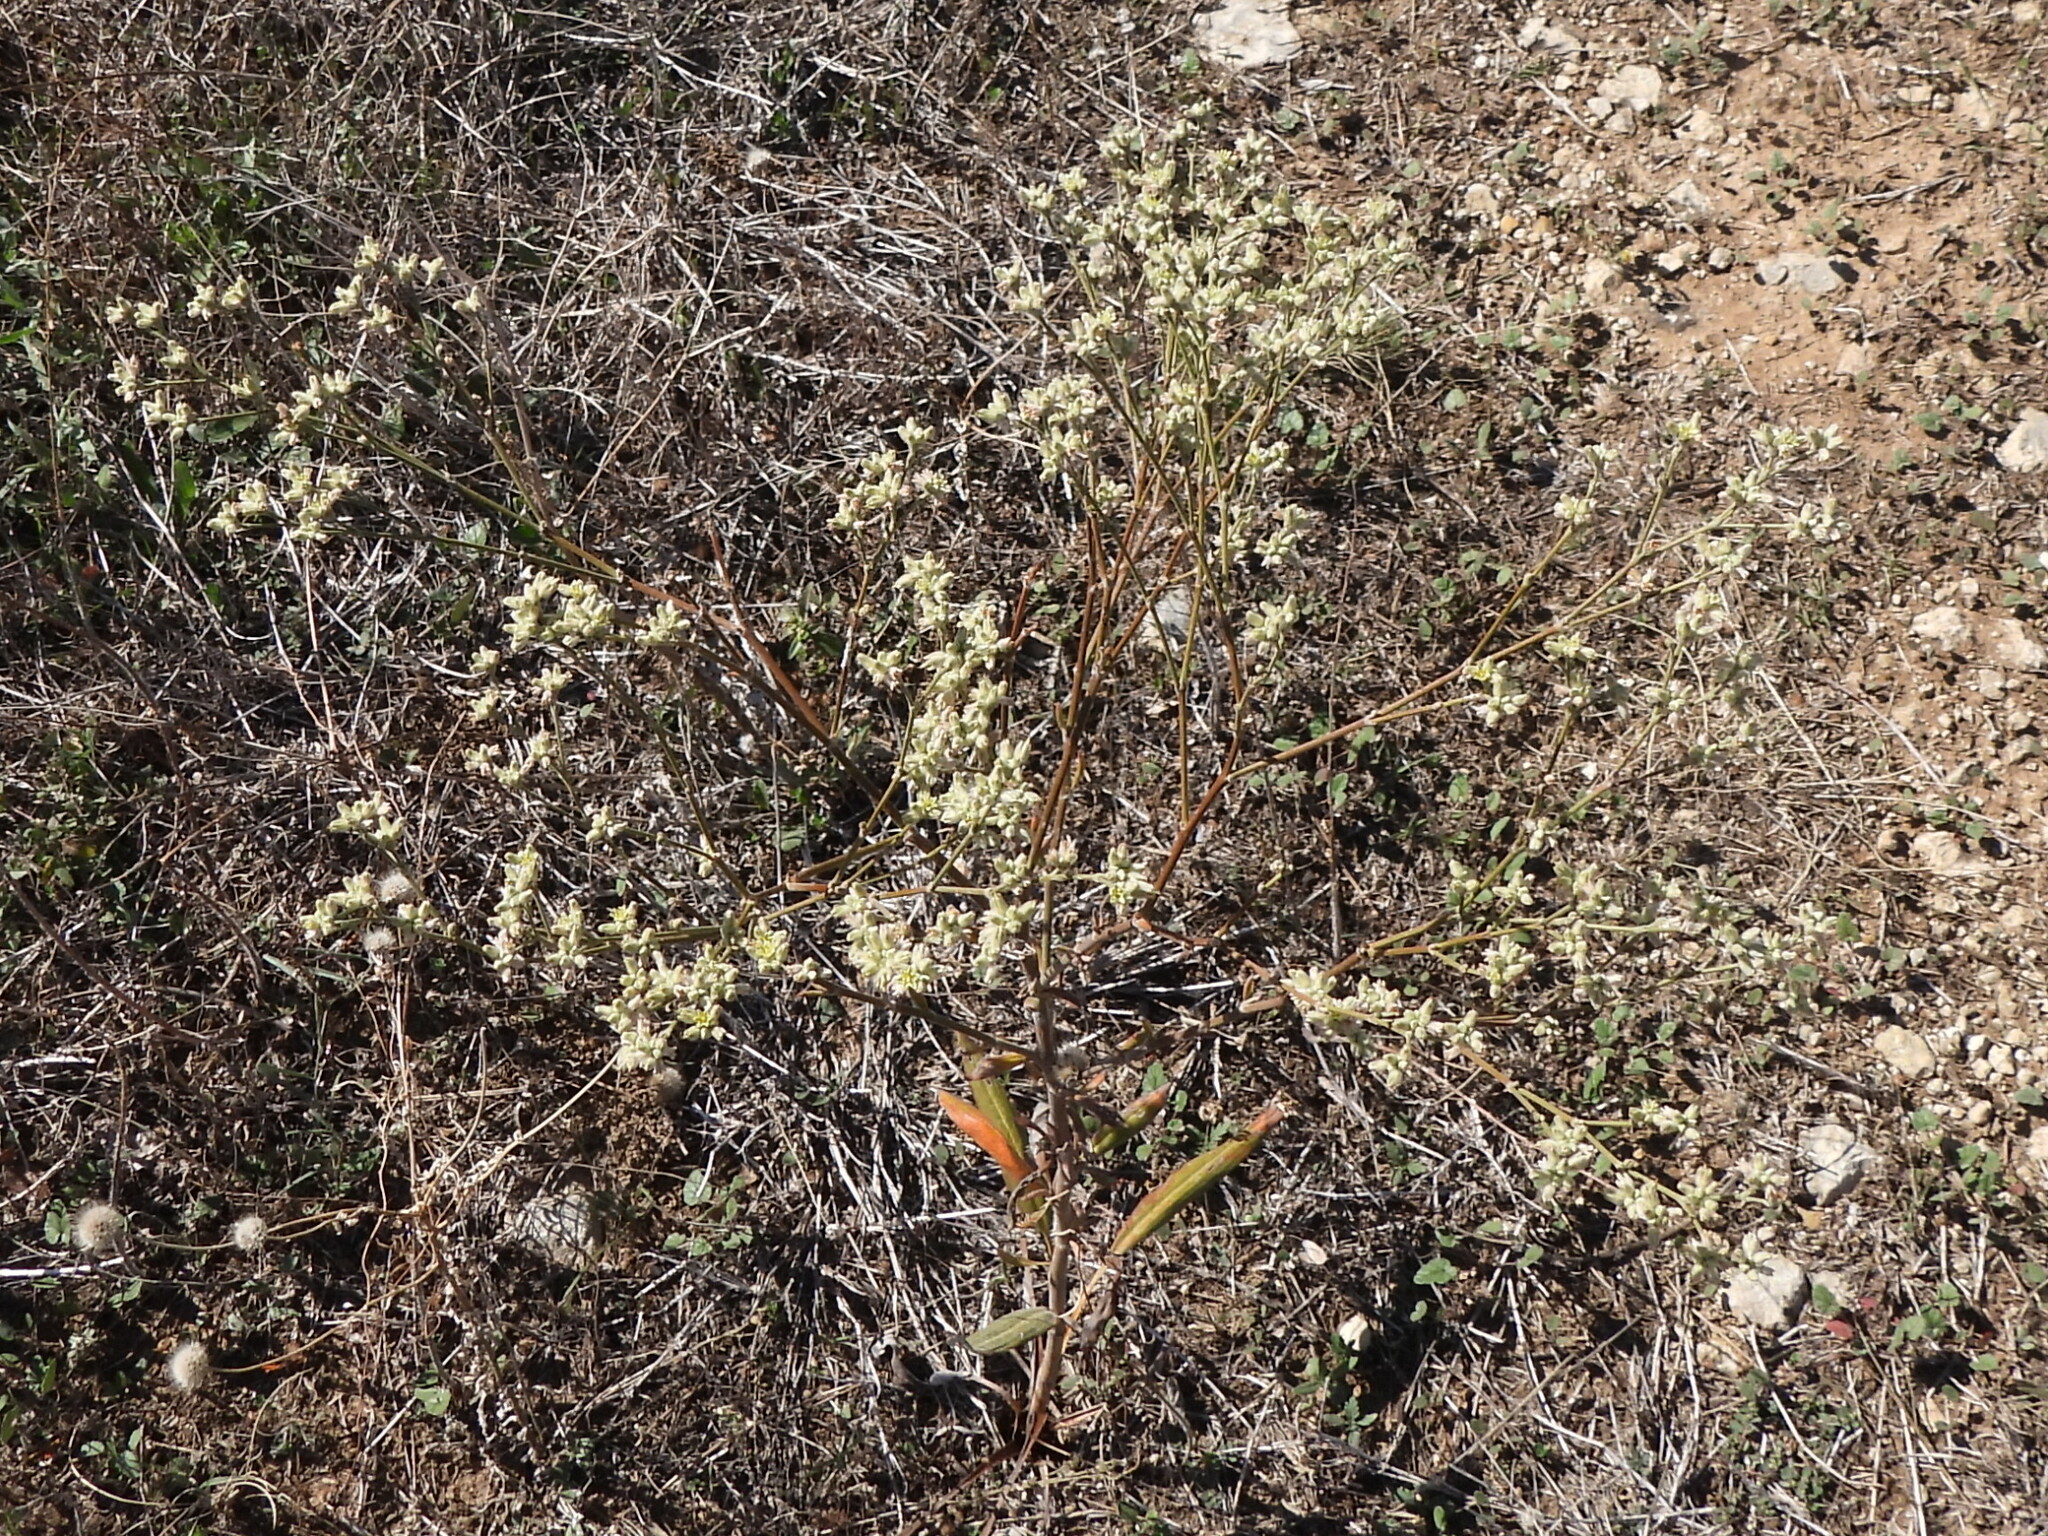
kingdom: Plantae
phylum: Tracheophyta
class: Magnoliopsida
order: Caryophyllales
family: Polygonaceae
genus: Eriogonum
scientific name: Eriogonum longifolium
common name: Longleaf wild buckwheat
